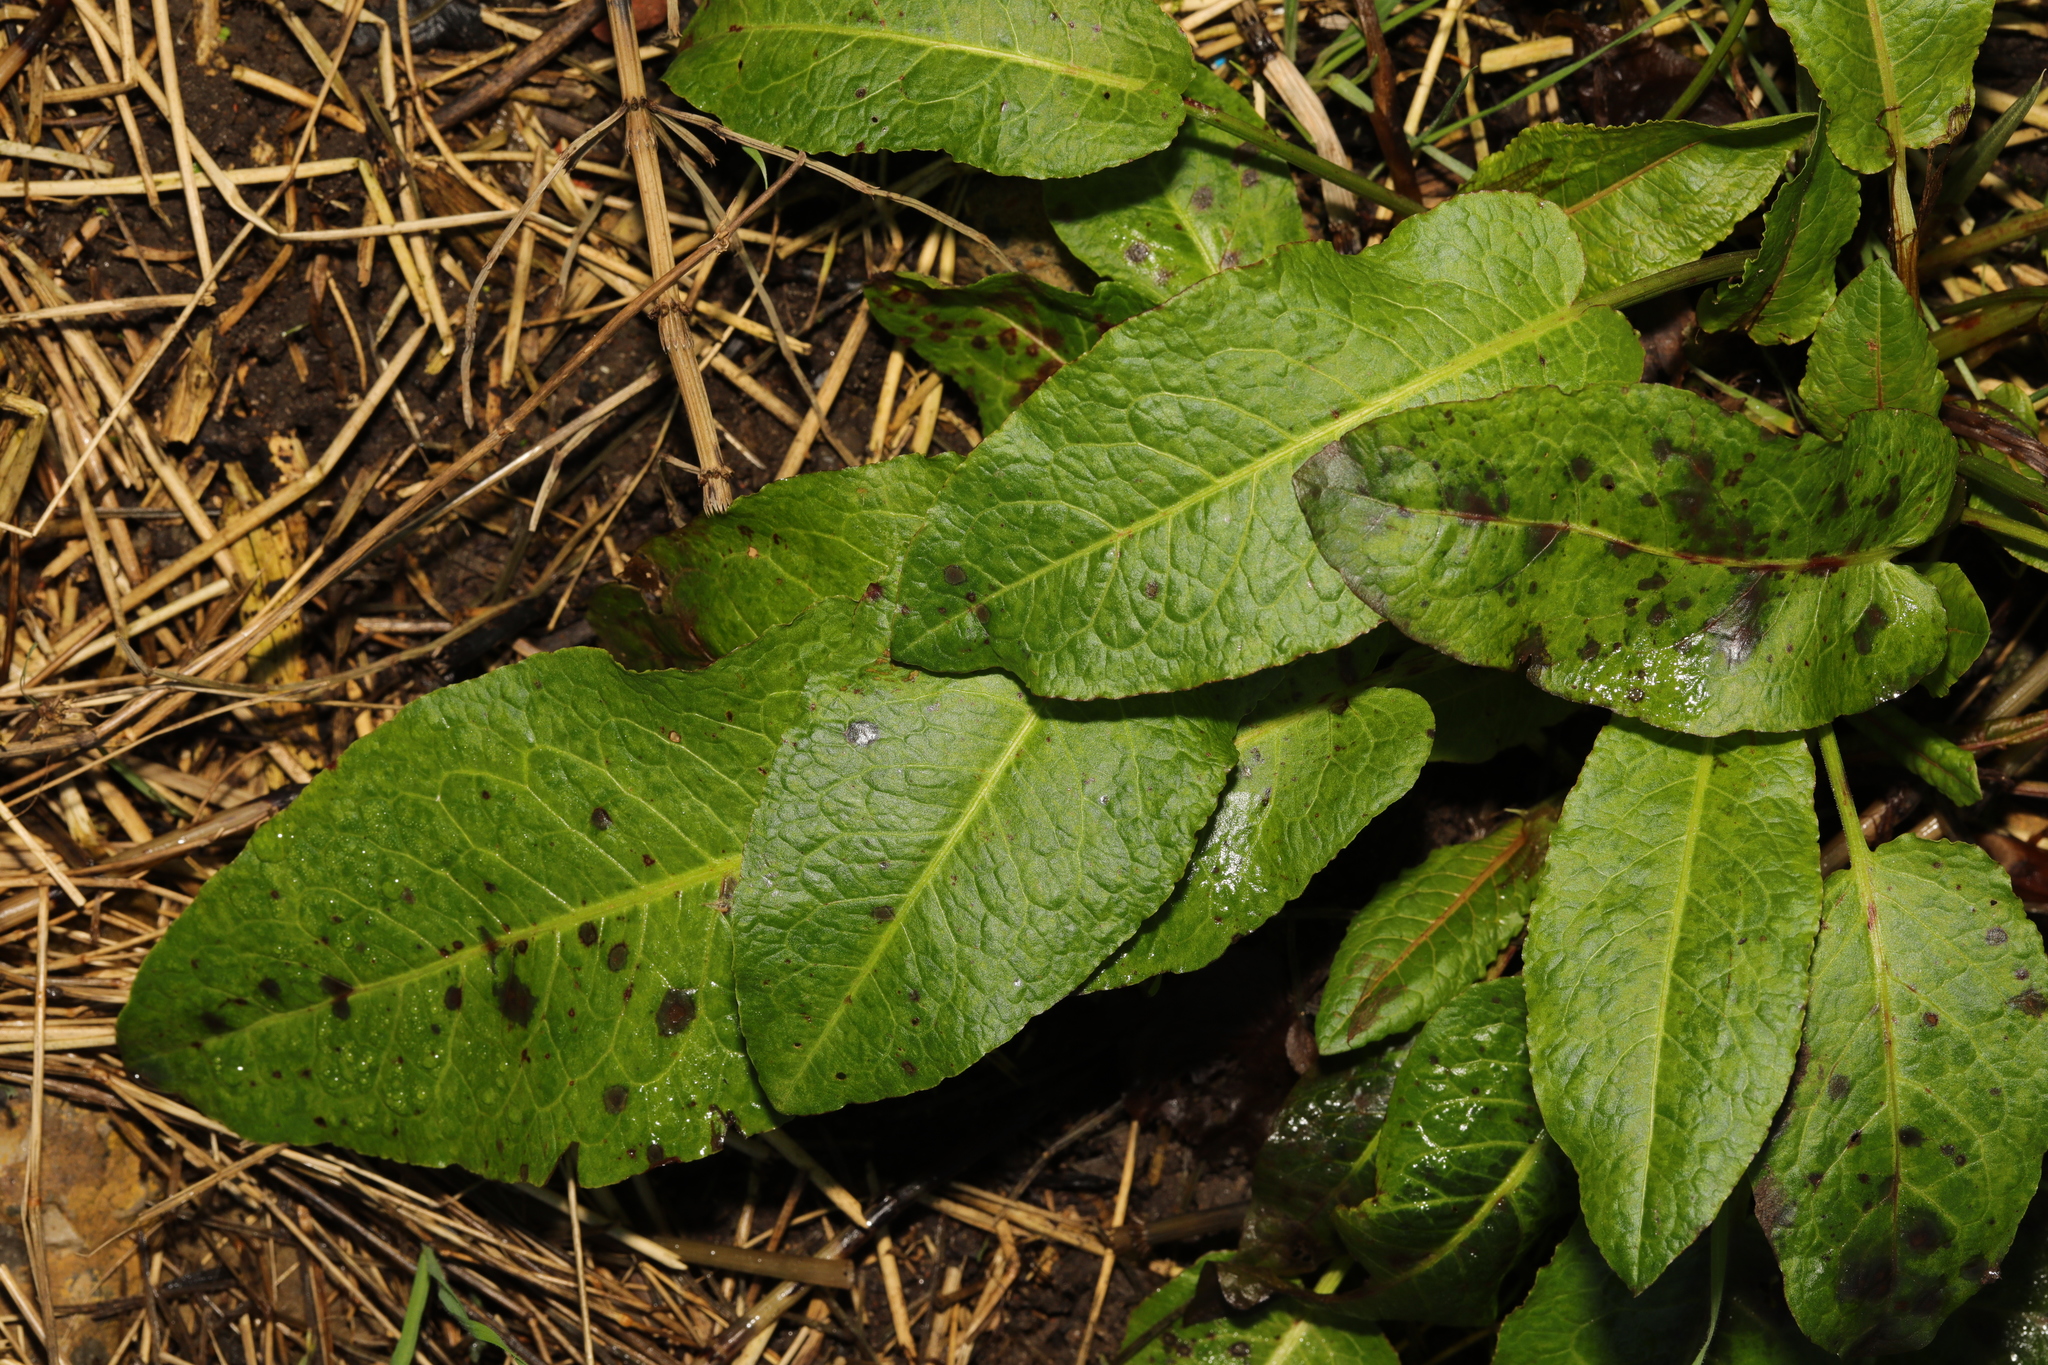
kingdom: Plantae
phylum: Tracheophyta
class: Magnoliopsida
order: Caryophyllales
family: Polygonaceae
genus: Rumex
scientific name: Rumex obtusifolius
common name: Bitter dock
